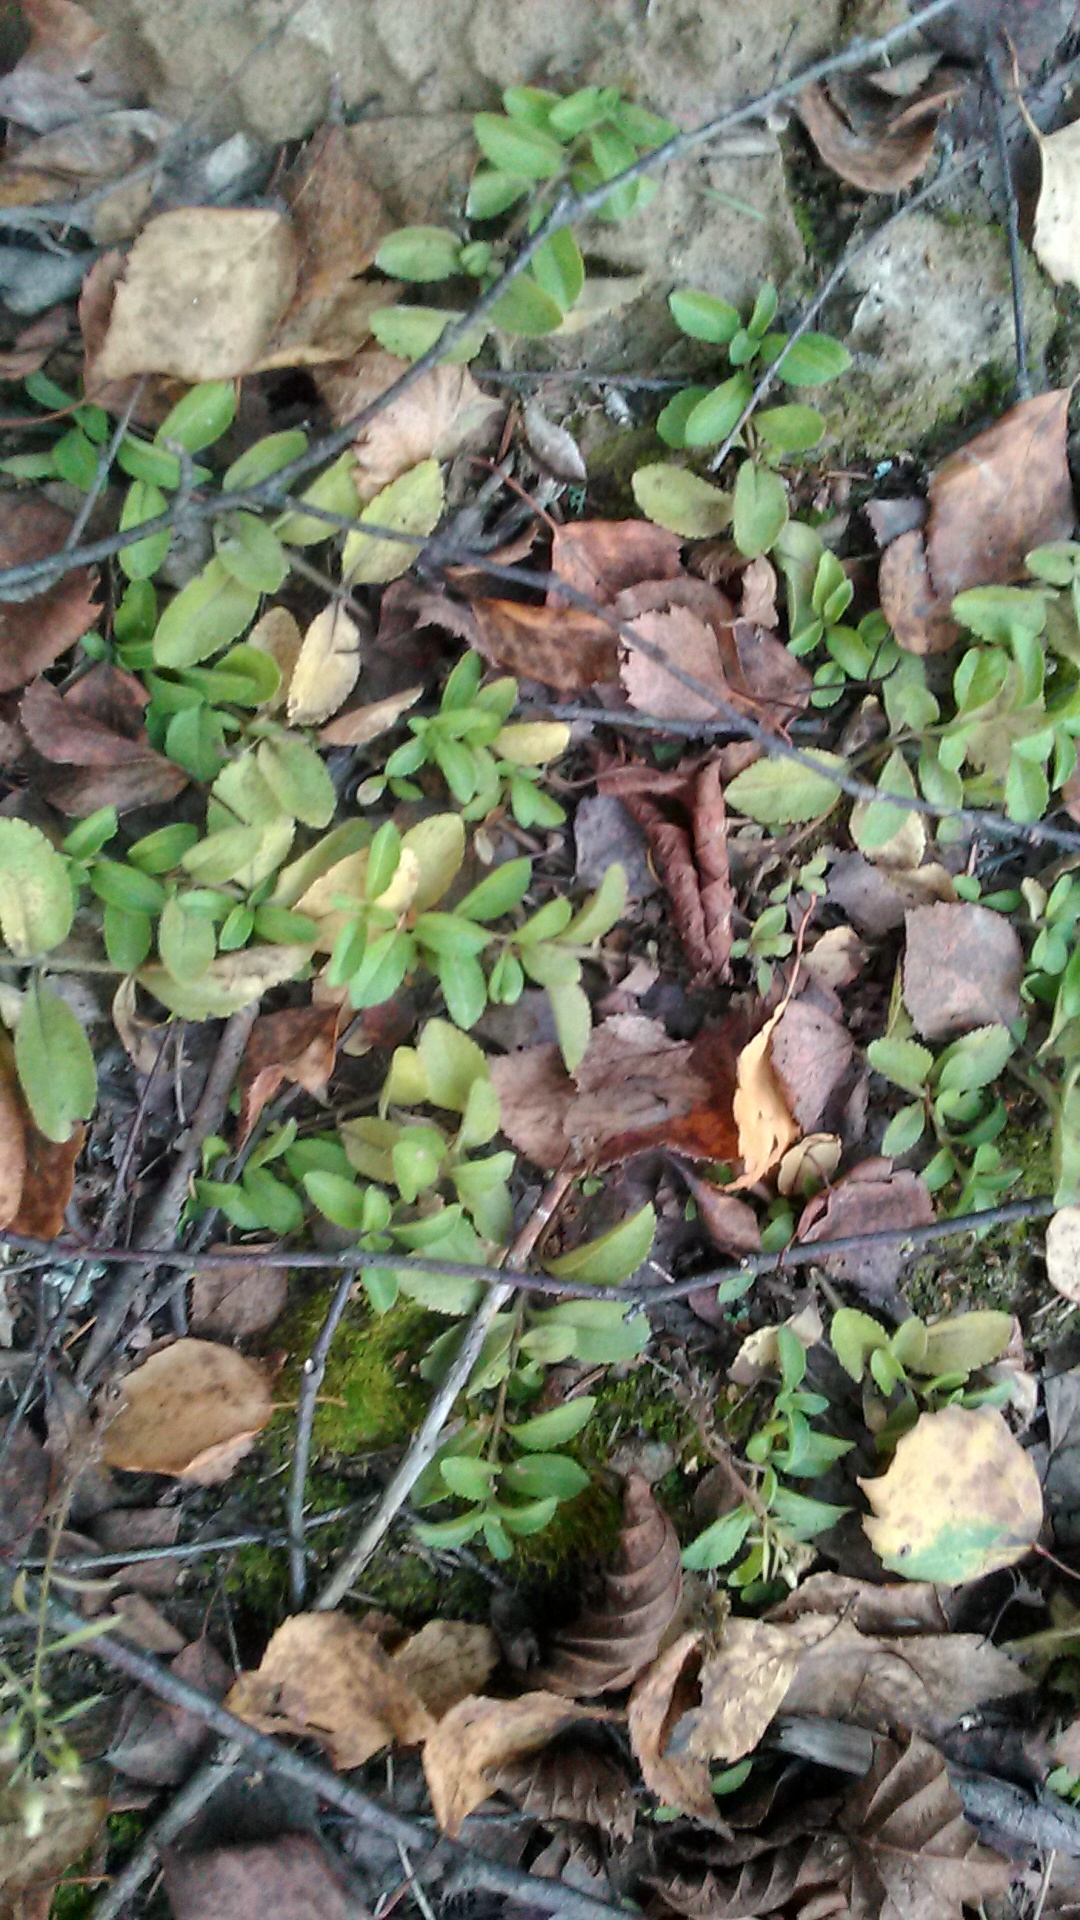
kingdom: Plantae
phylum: Tracheophyta
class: Magnoliopsida
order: Lamiales
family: Plantaginaceae
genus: Veronica
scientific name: Veronica officinalis
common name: Common speedwell
